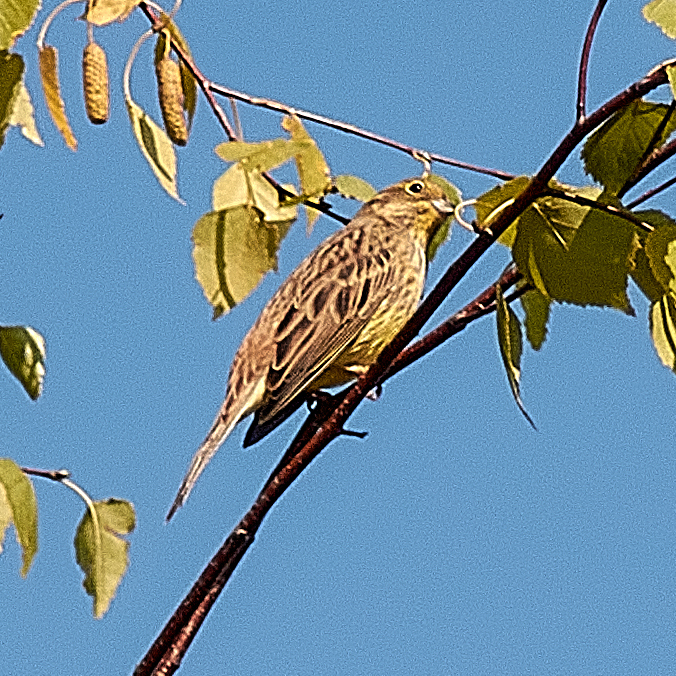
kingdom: Animalia
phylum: Chordata
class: Aves
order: Passeriformes
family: Emberizidae
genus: Emberiza
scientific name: Emberiza citrinella
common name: Yellowhammer
